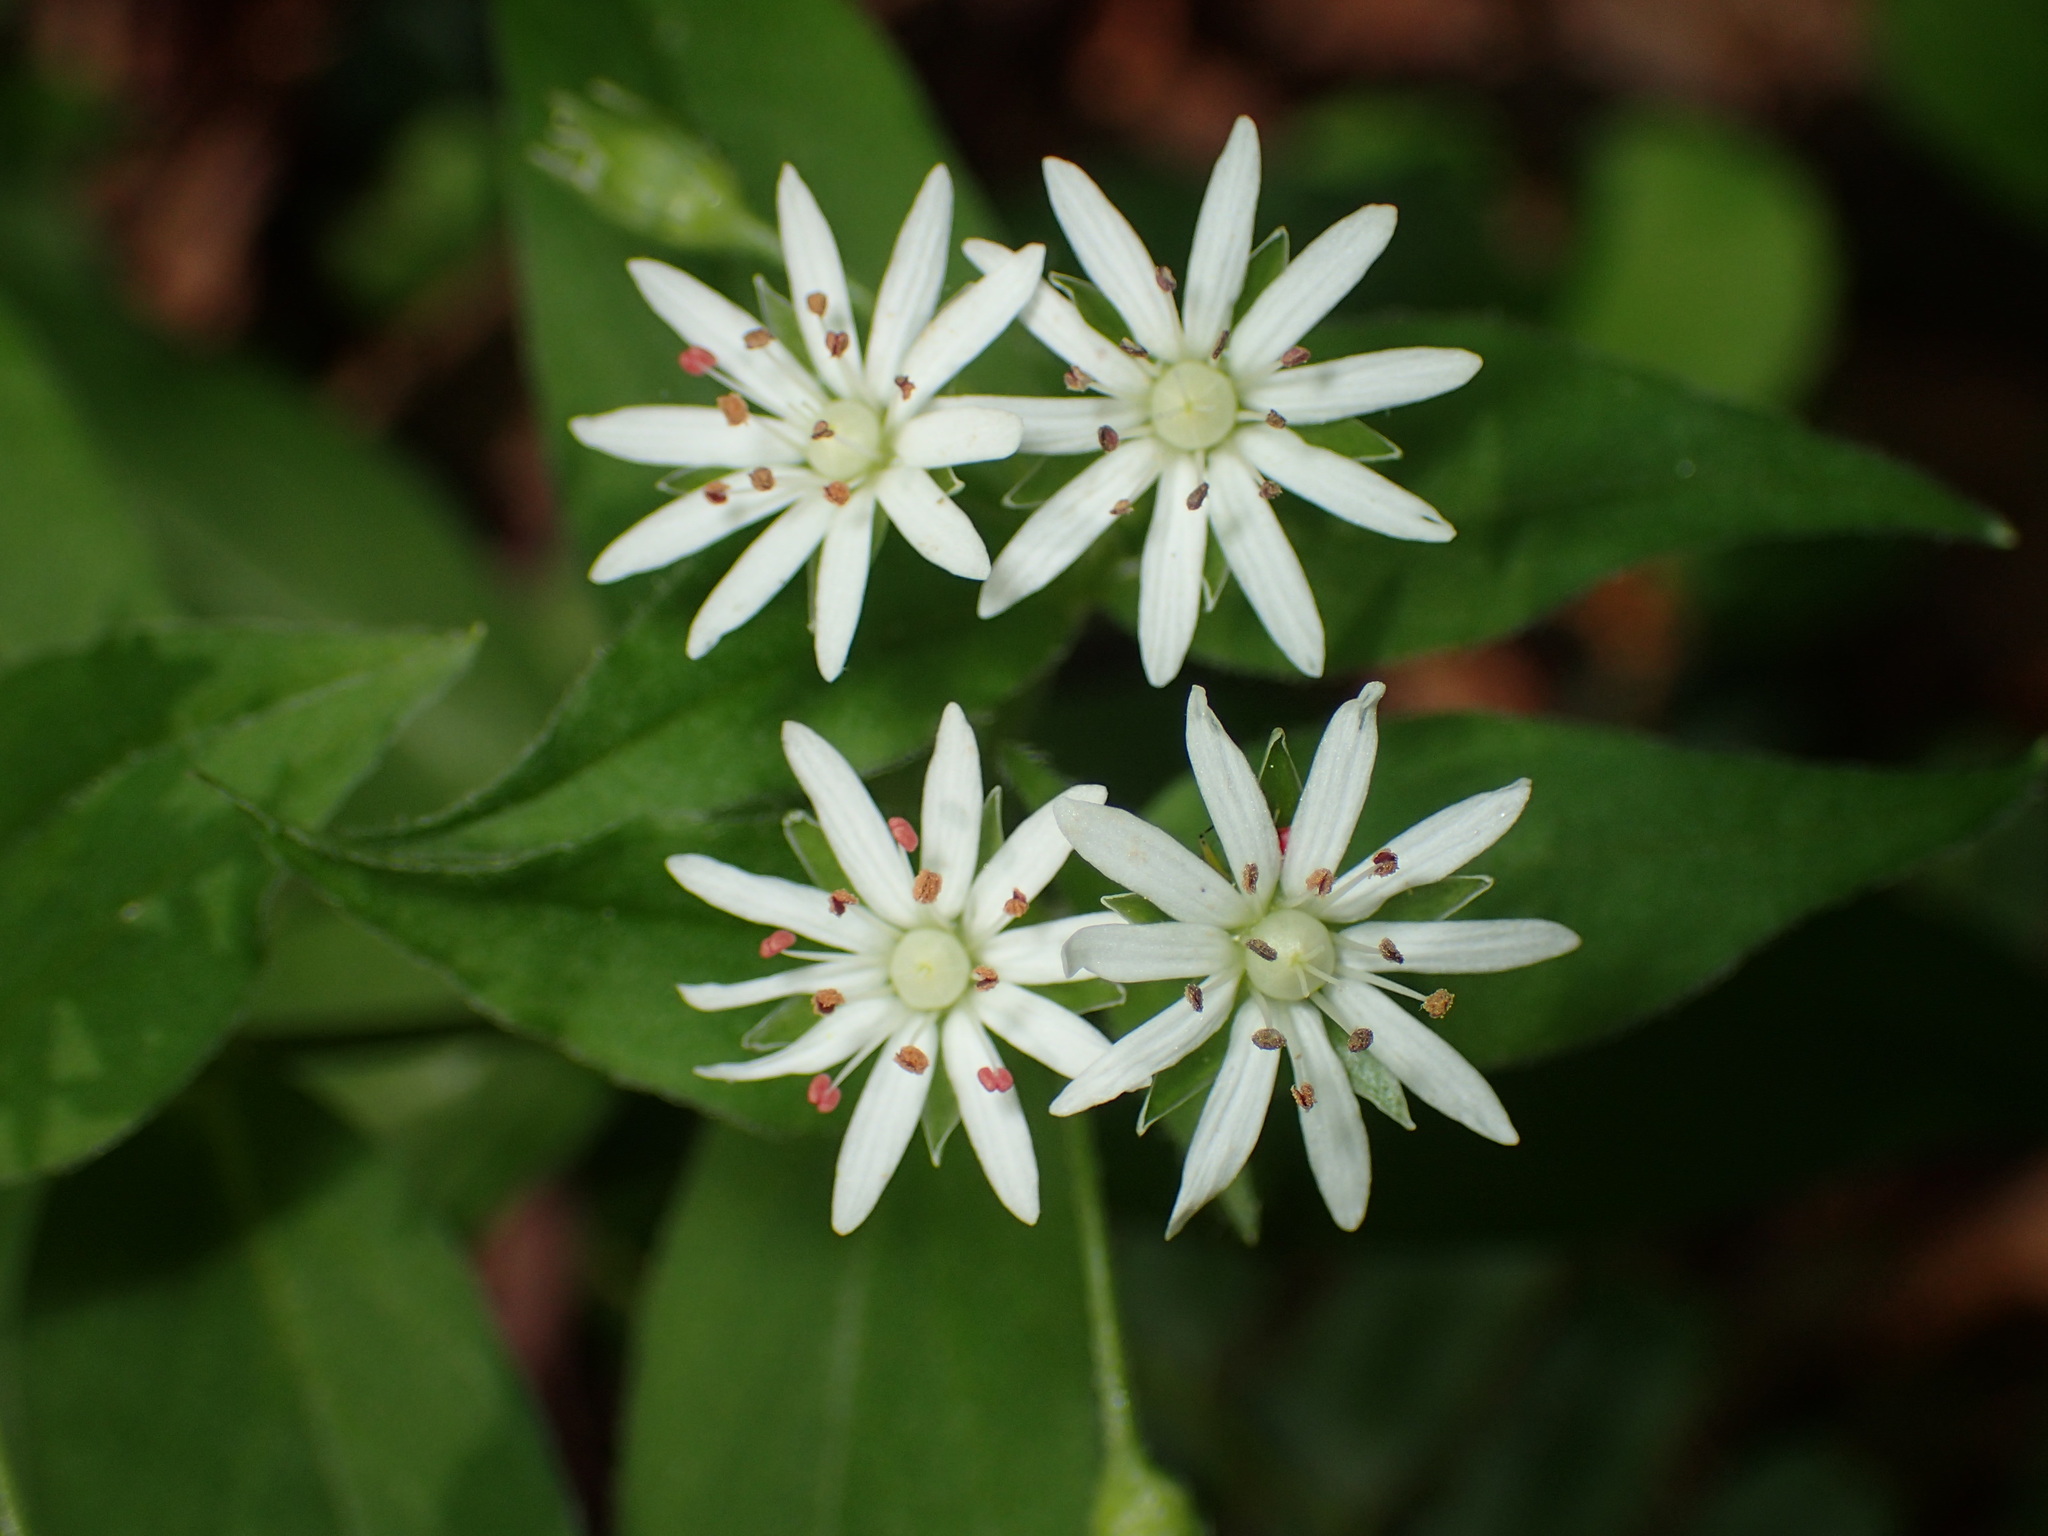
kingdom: Plantae
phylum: Tracheophyta
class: Magnoliopsida
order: Caryophyllales
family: Caryophyllaceae
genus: Stellaria
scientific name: Stellaria pubera
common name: Star chickweed
